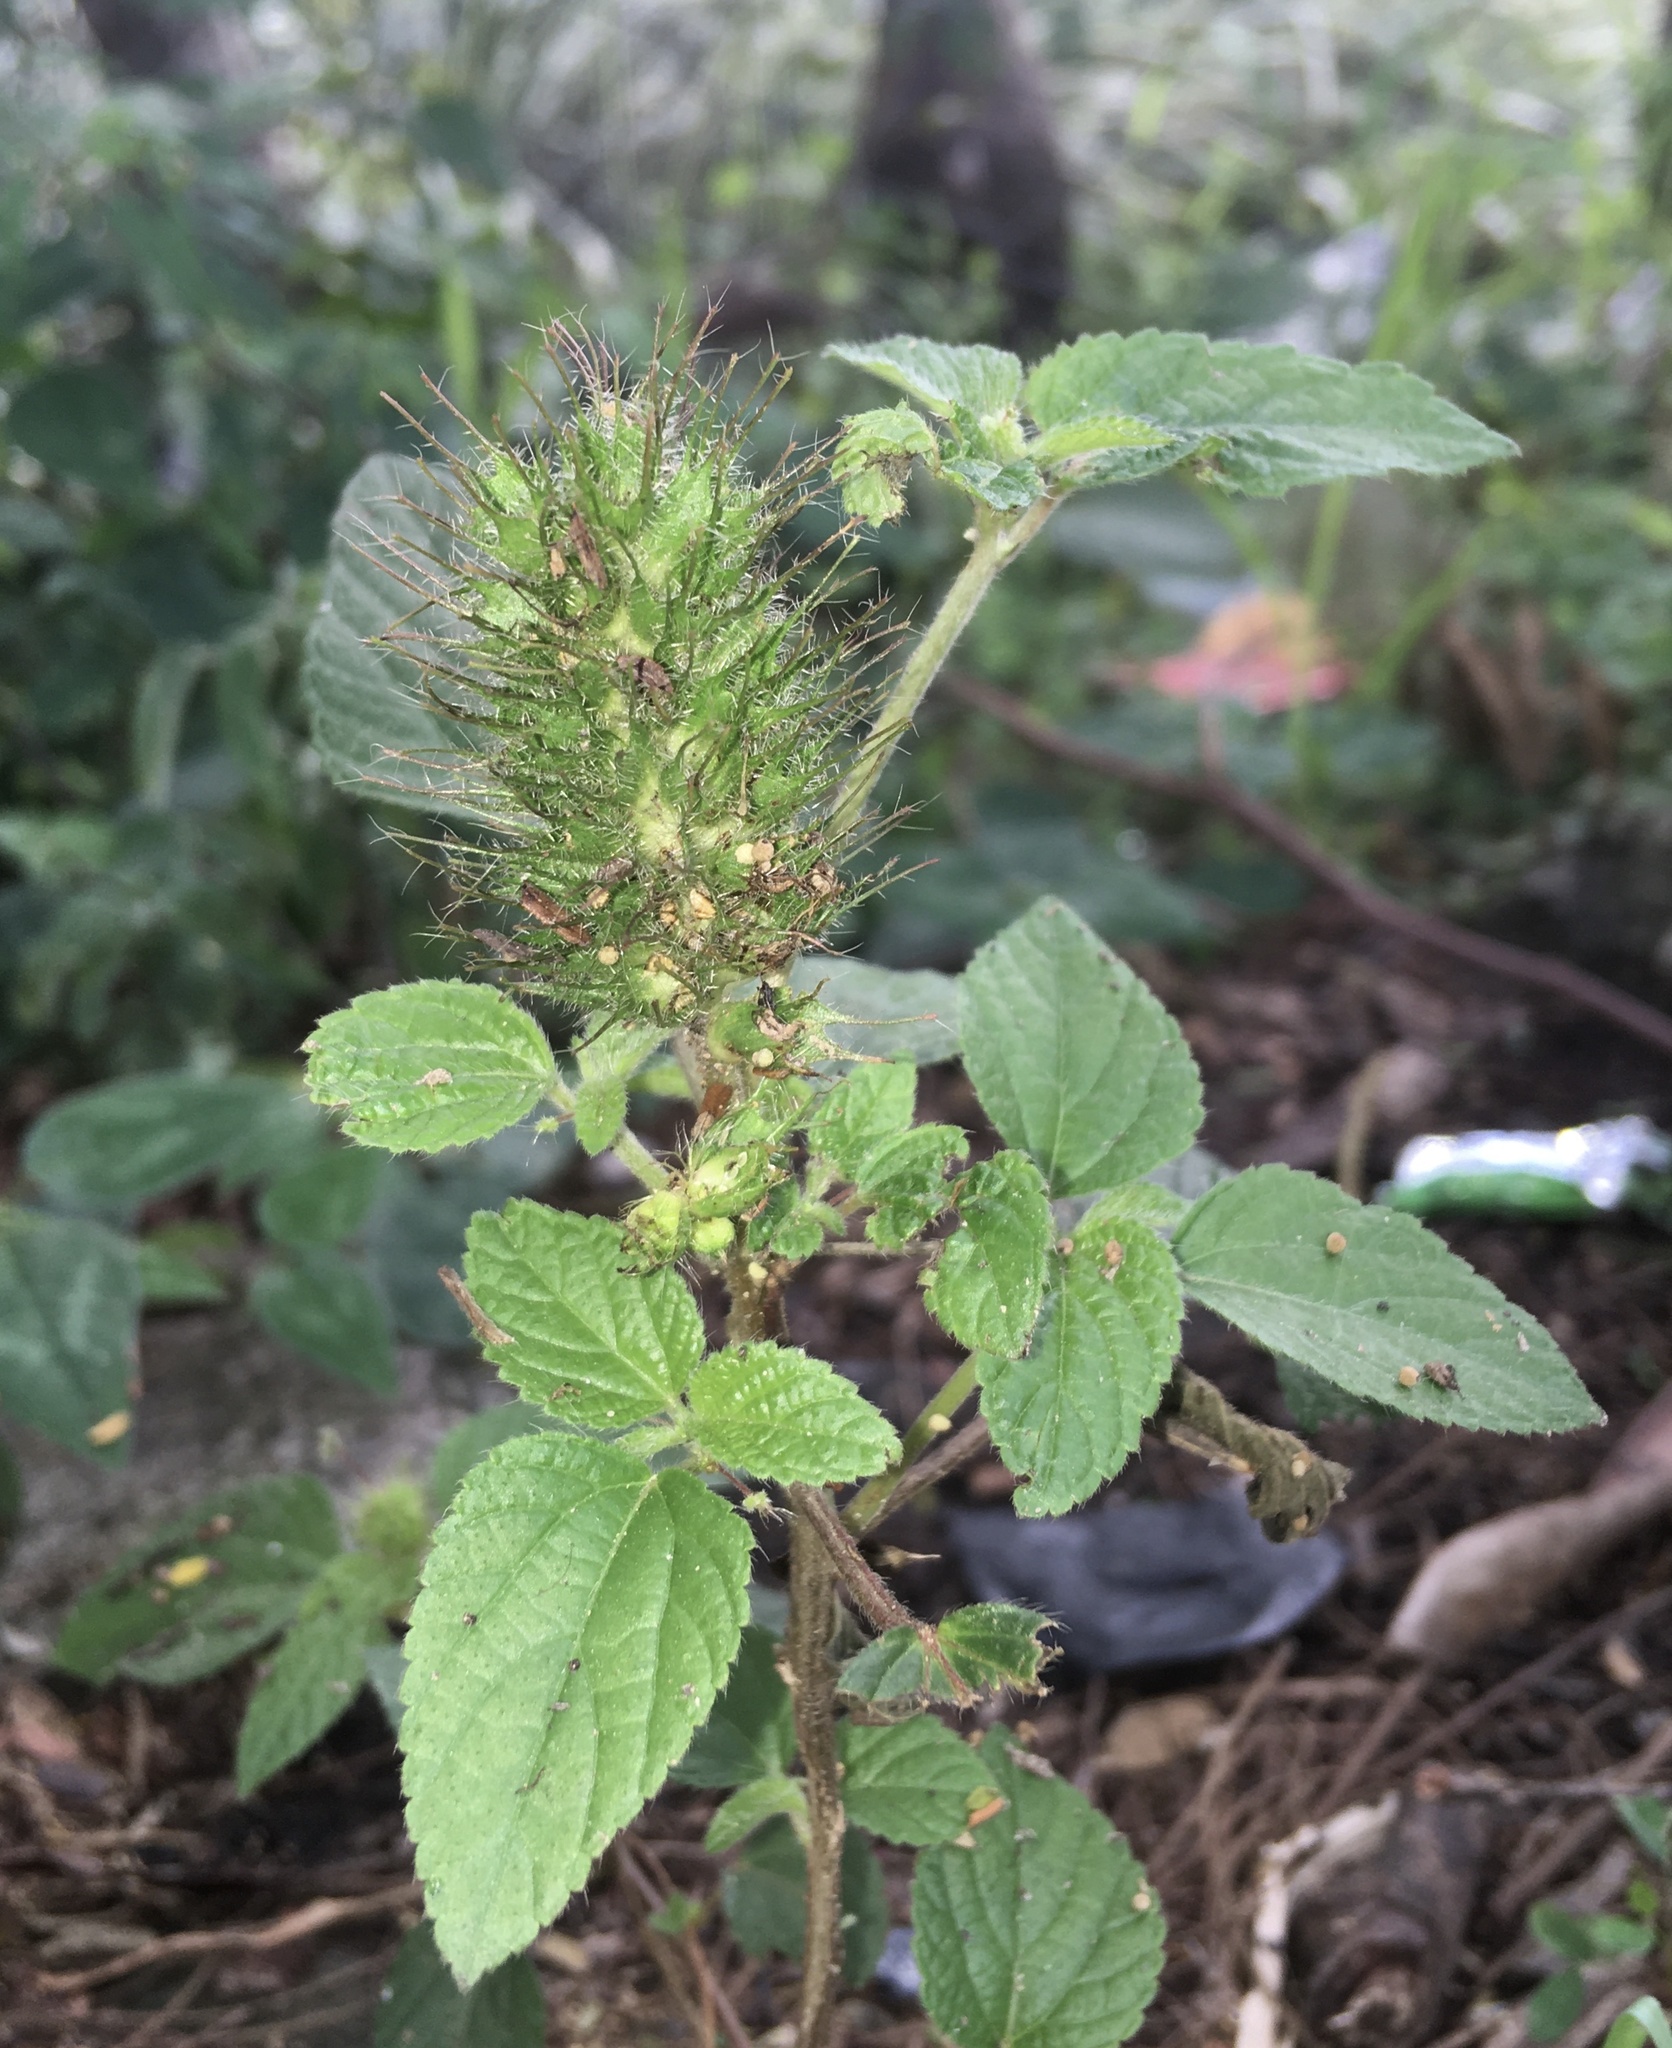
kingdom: Plantae
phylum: Tracheophyta
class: Magnoliopsida
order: Malpighiales
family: Euphorbiaceae
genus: Acalypha
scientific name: Acalypha alopecuroidea
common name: Foxtail copperleaf
